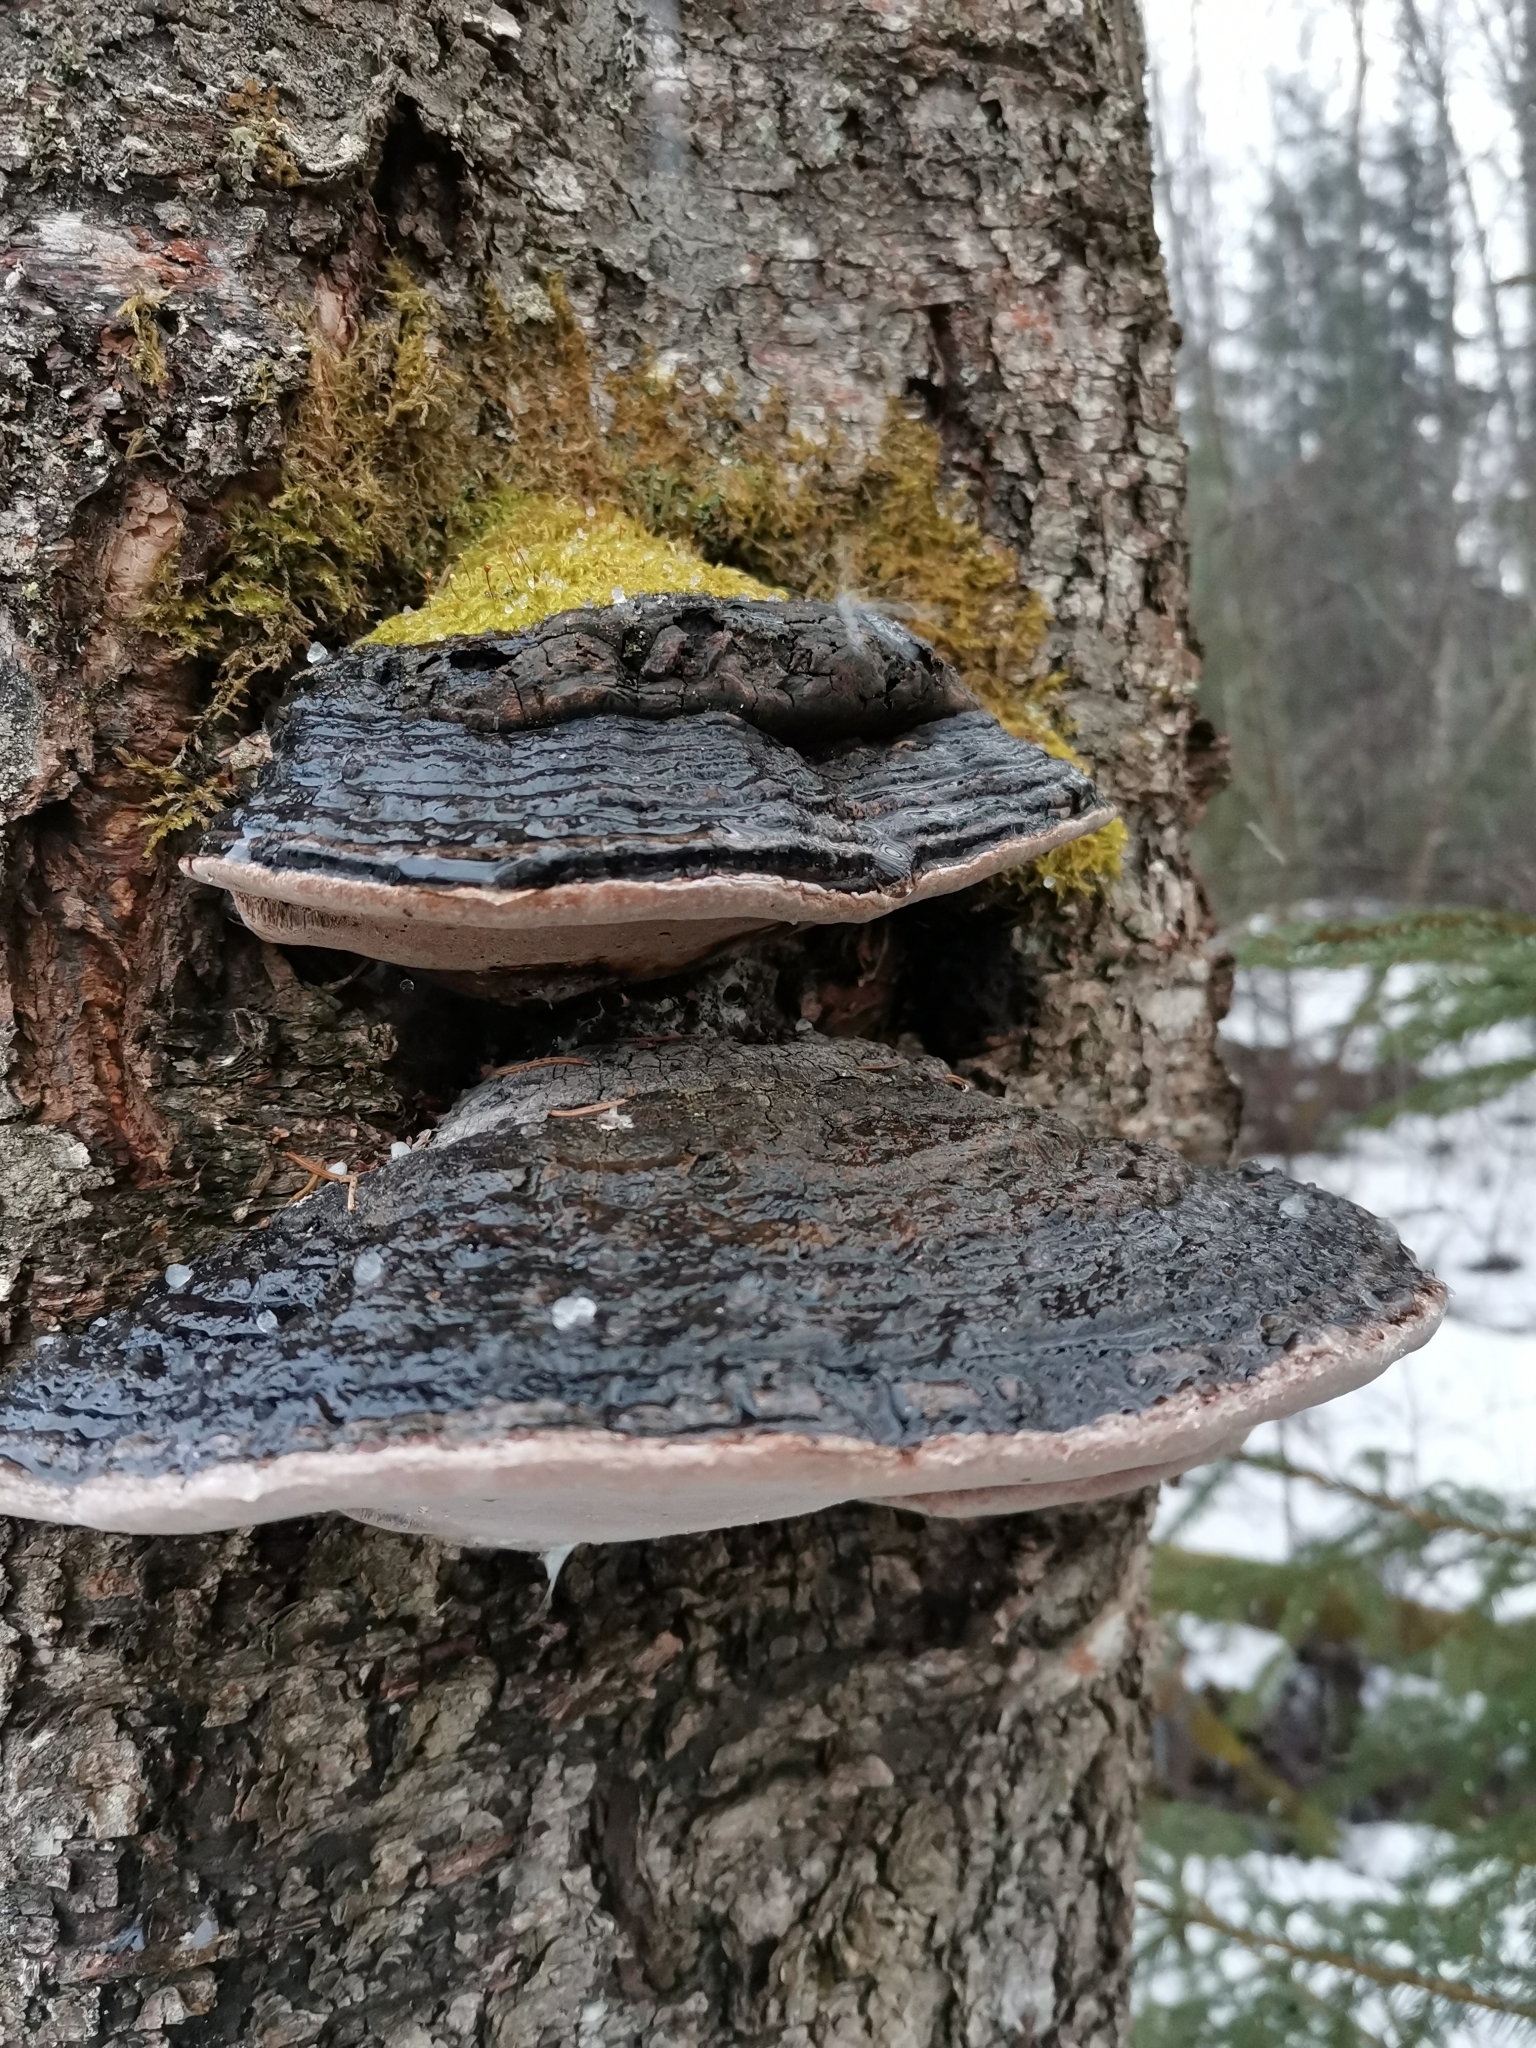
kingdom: Fungi
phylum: Basidiomycota
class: Agaricomycetes
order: Hymenochaetales
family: Hymenochaetaceae
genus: Phellinus
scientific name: Phellinus igniarius
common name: Willow bracket
